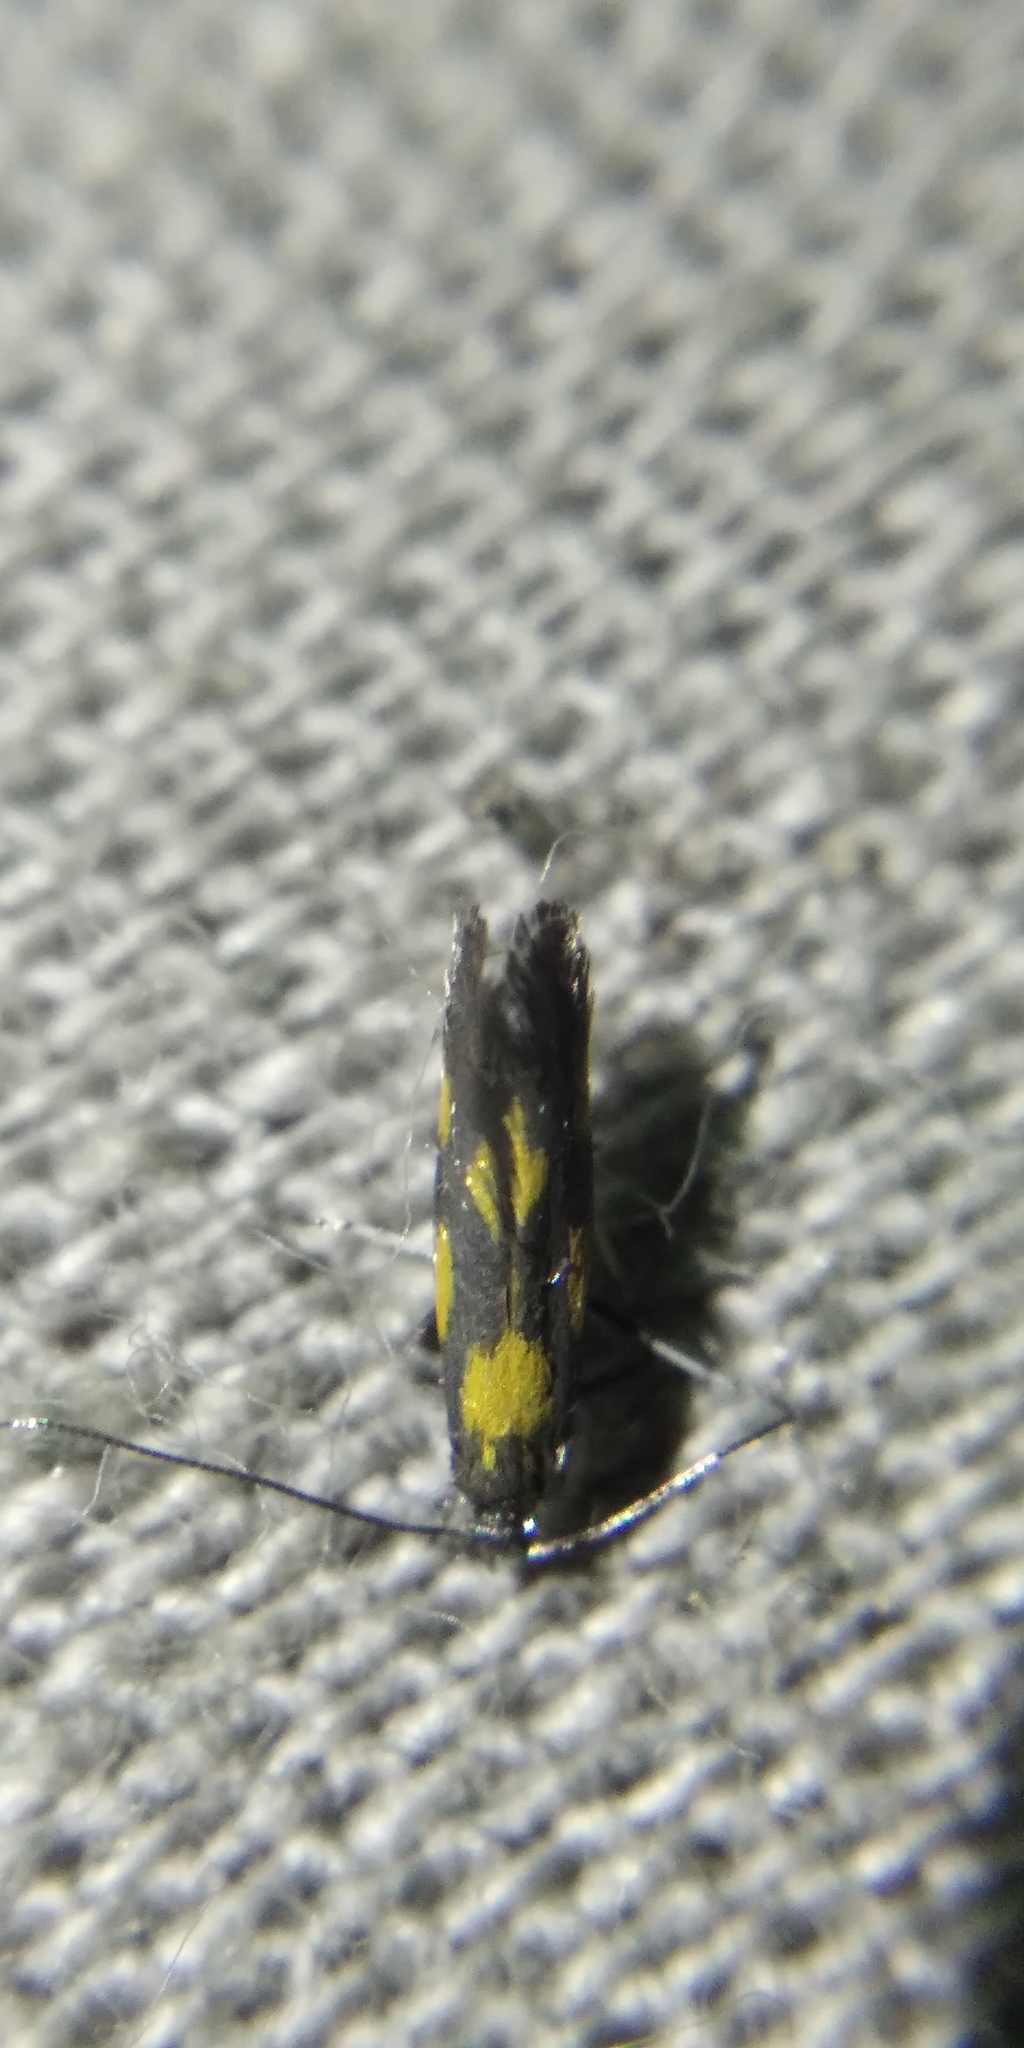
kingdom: Animalia
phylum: Arthropoda
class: Insecta
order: Lepidoptera
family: Gracillariidae
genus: Euspilapteryx
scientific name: Euspilapteryx auroguttella
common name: Gold-dot slender
